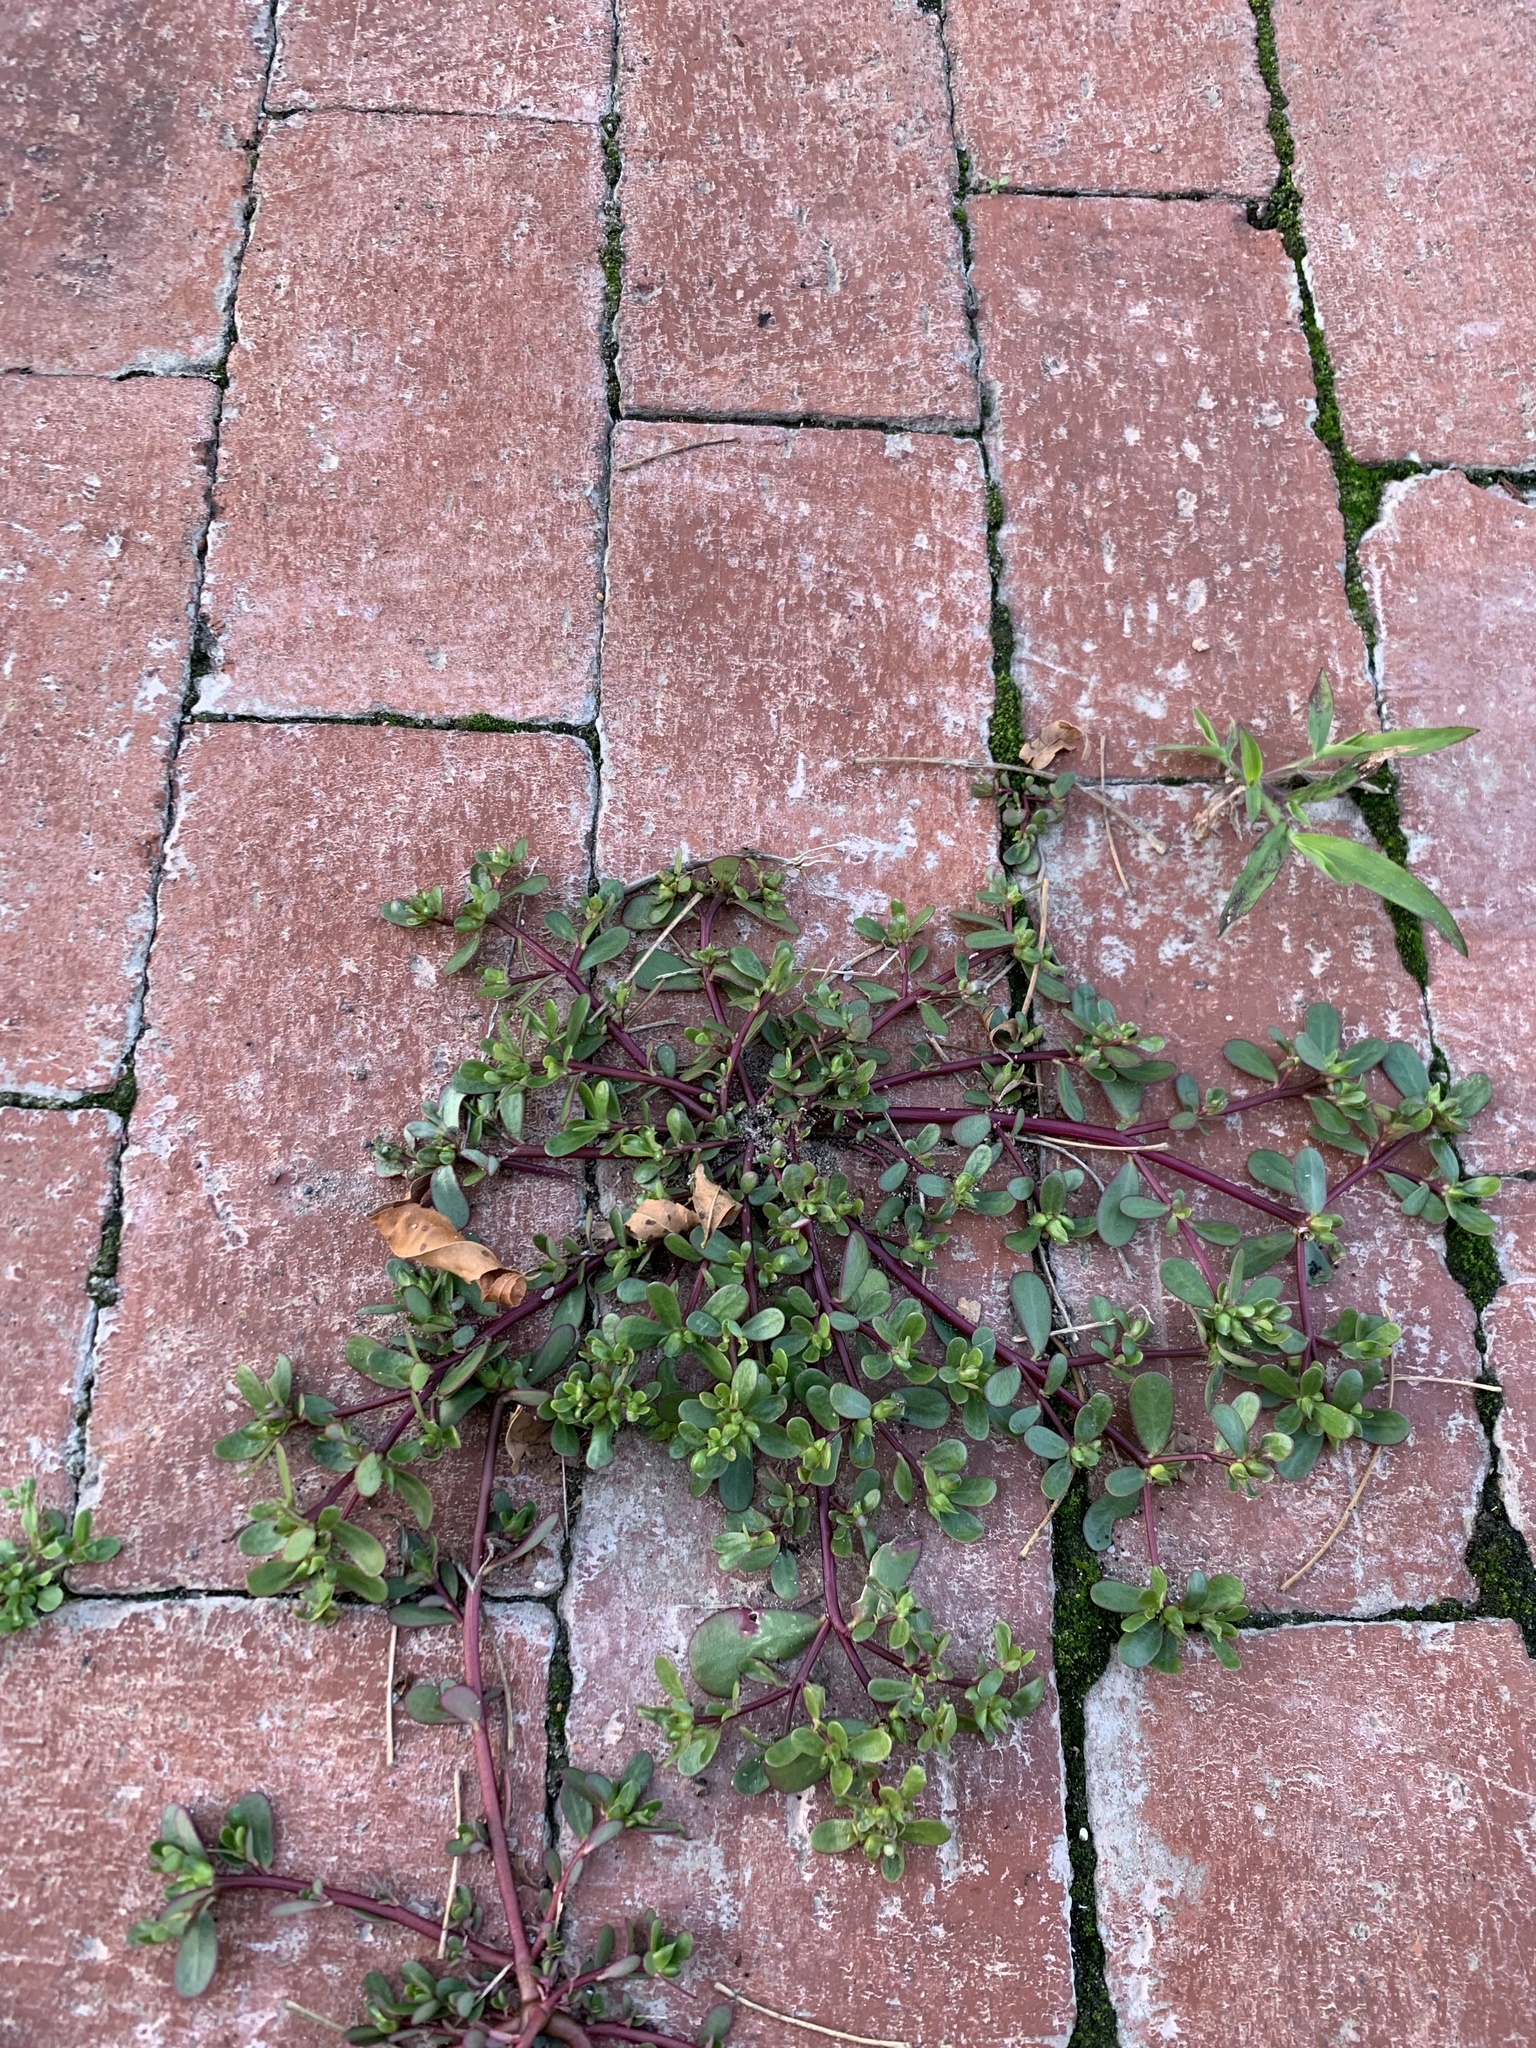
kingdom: Plantae
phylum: Tracheophyta
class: Magnoliopsida
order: Caryophyllales
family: Portulacaceae
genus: Portulaca
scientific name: Portulaca oleracea
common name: Common purslane
